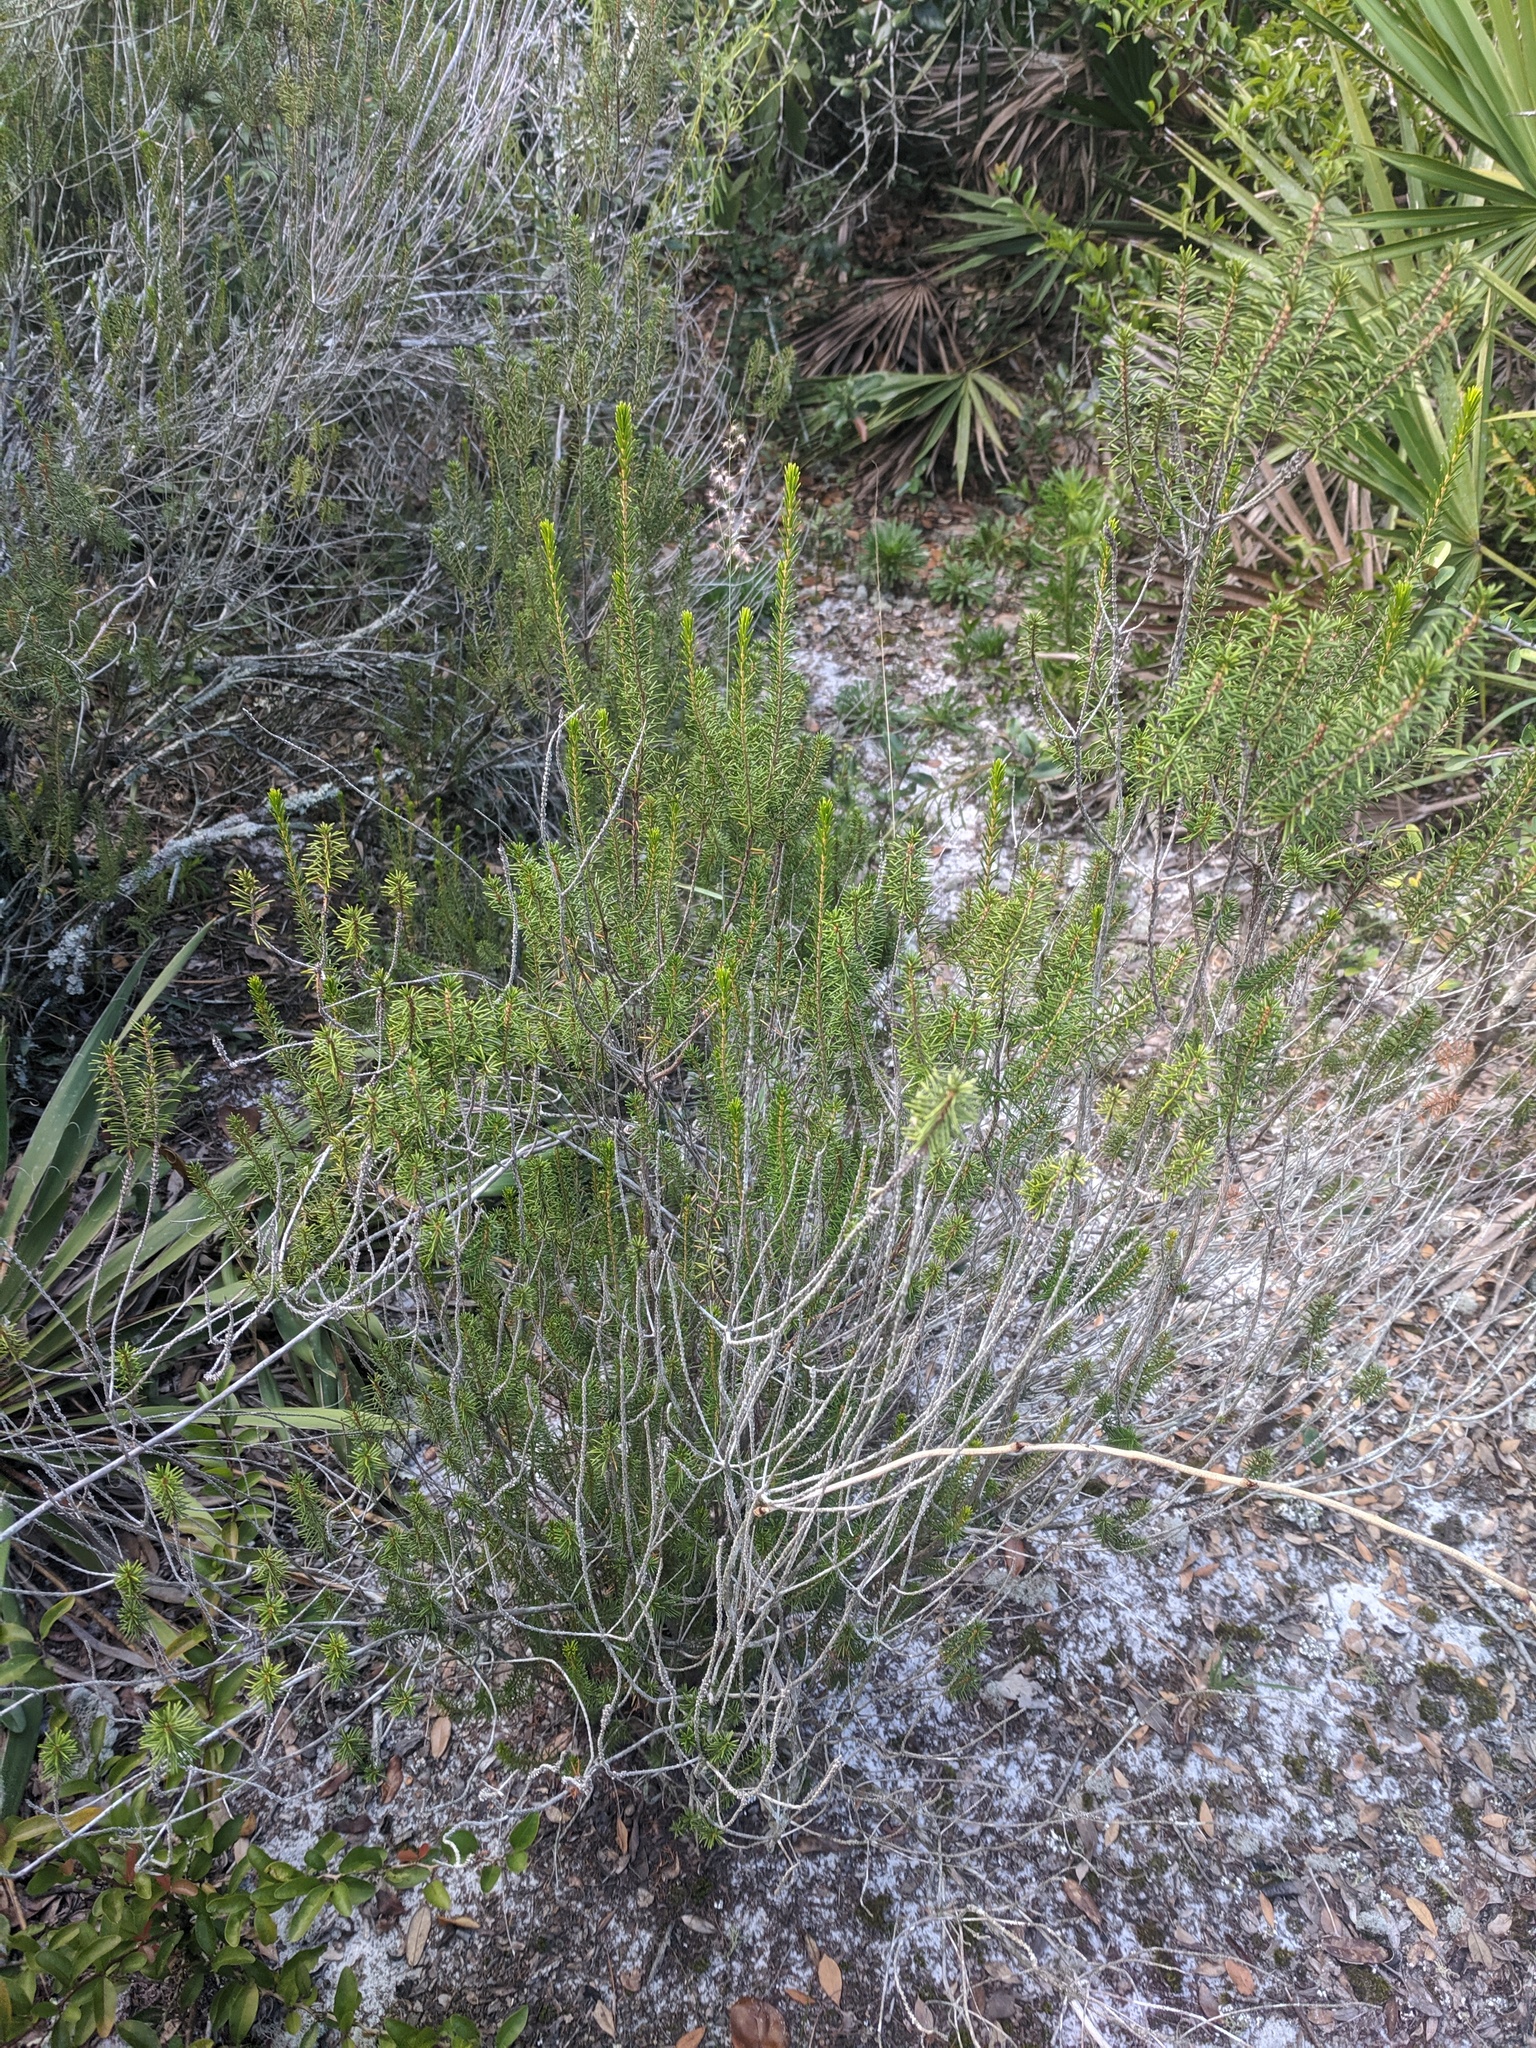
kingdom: Plantae
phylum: Tracheophyta
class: Magnoliopsida
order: Ericales
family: Ericaceae
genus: Ceratiola
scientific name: Ceratiola ericoides
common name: Sandhill-rosemary
